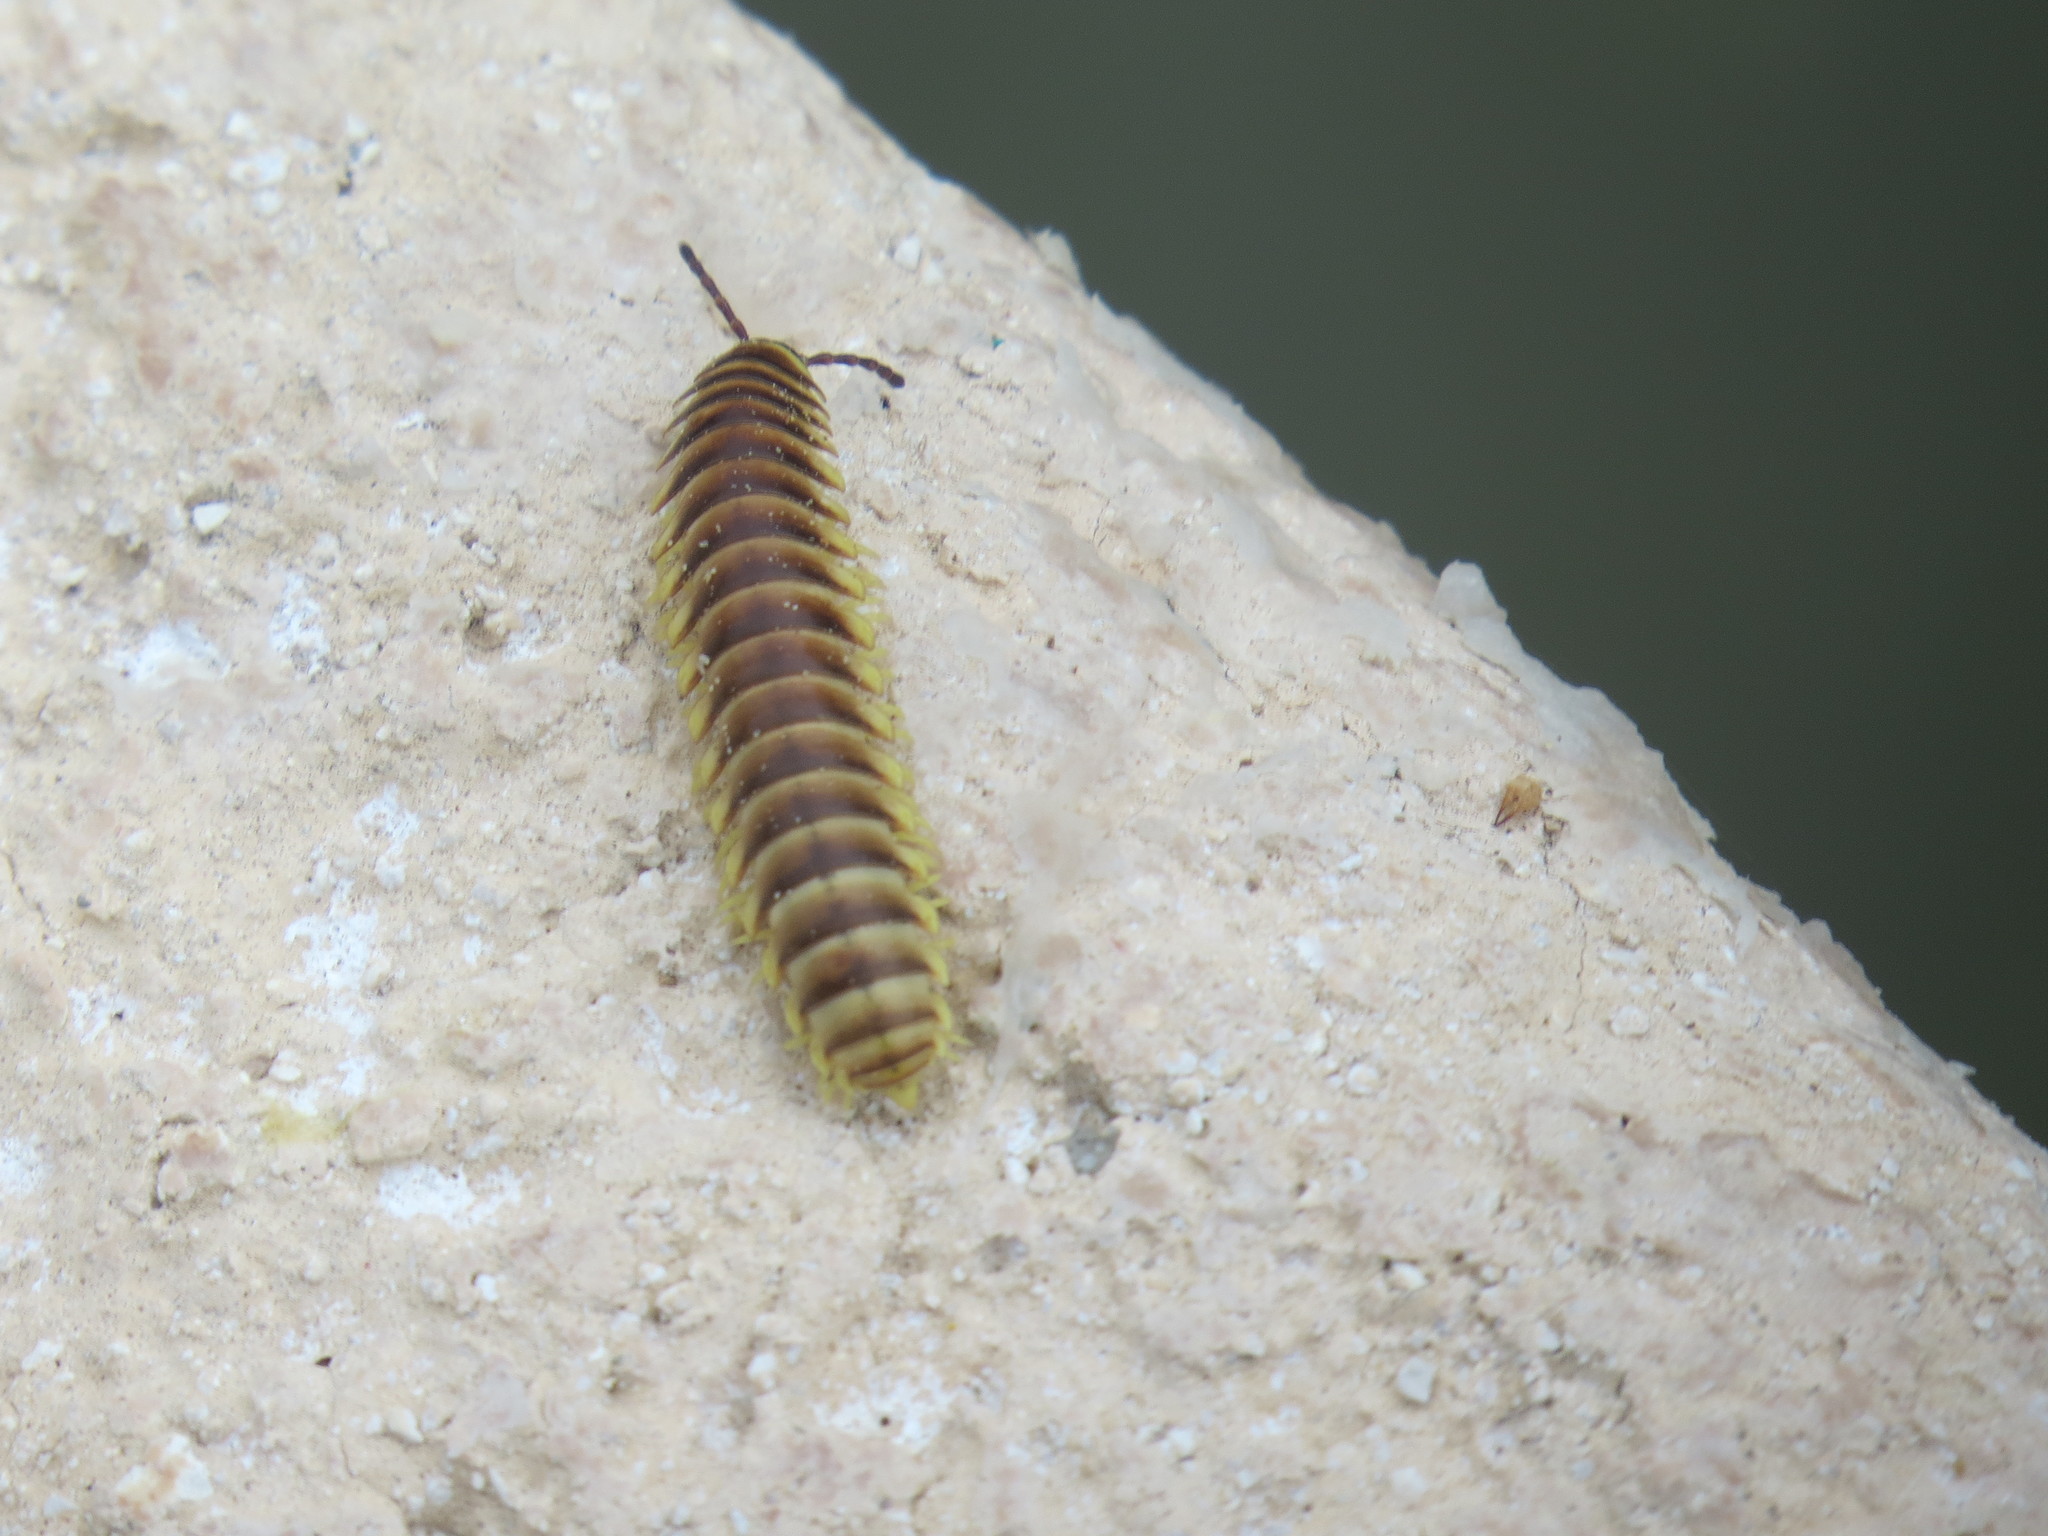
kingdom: Animalia
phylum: Arthropoda
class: Diplopoda
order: Polydesmida
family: Xystodesmidae
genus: Aporiaria
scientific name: Aporiaria texicolens
